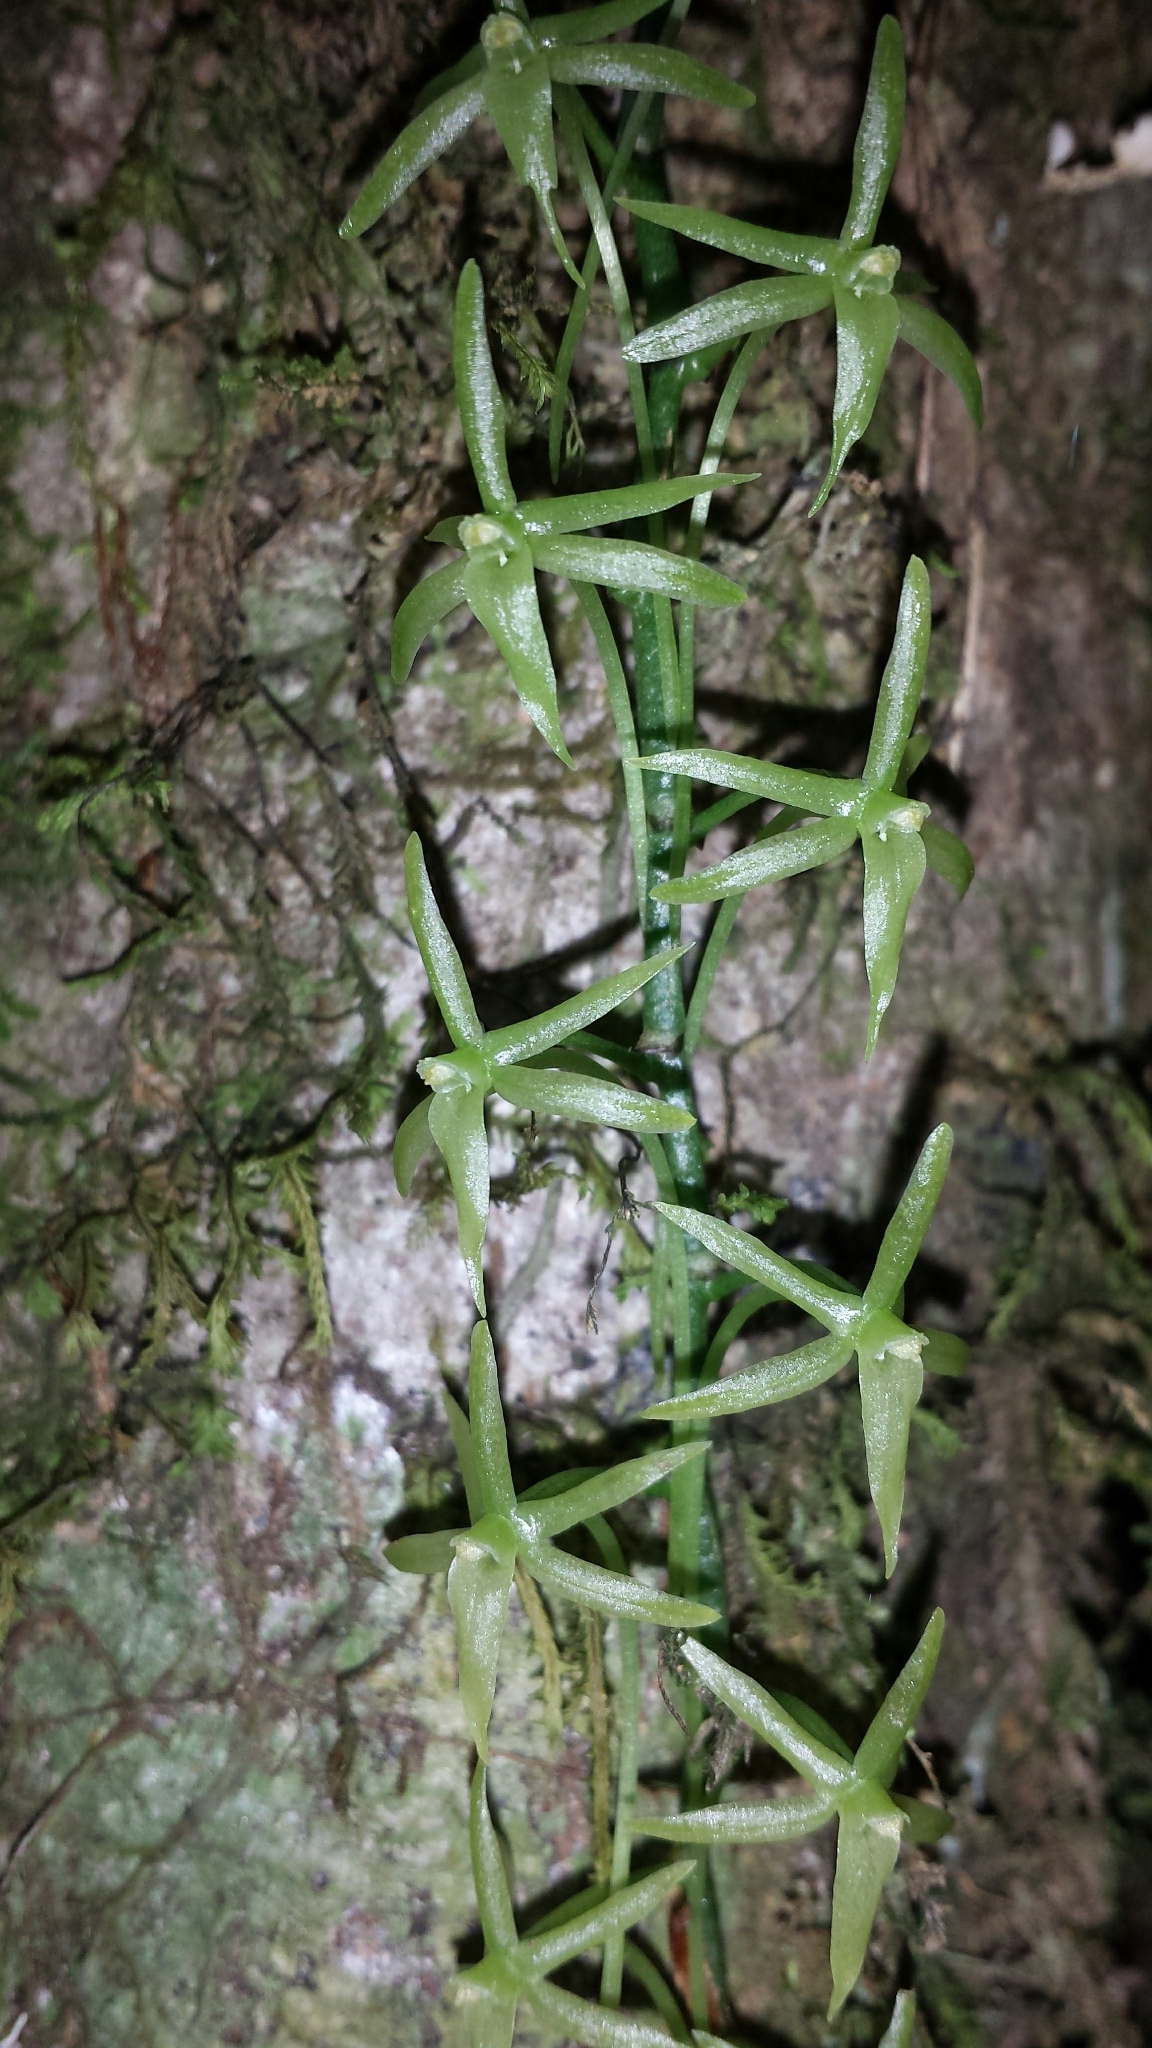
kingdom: Plantae
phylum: Tracheophyta
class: Liliopsida
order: Asparagales
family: Orchidaceae
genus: Aerangis
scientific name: Aerangis pallidiflora
